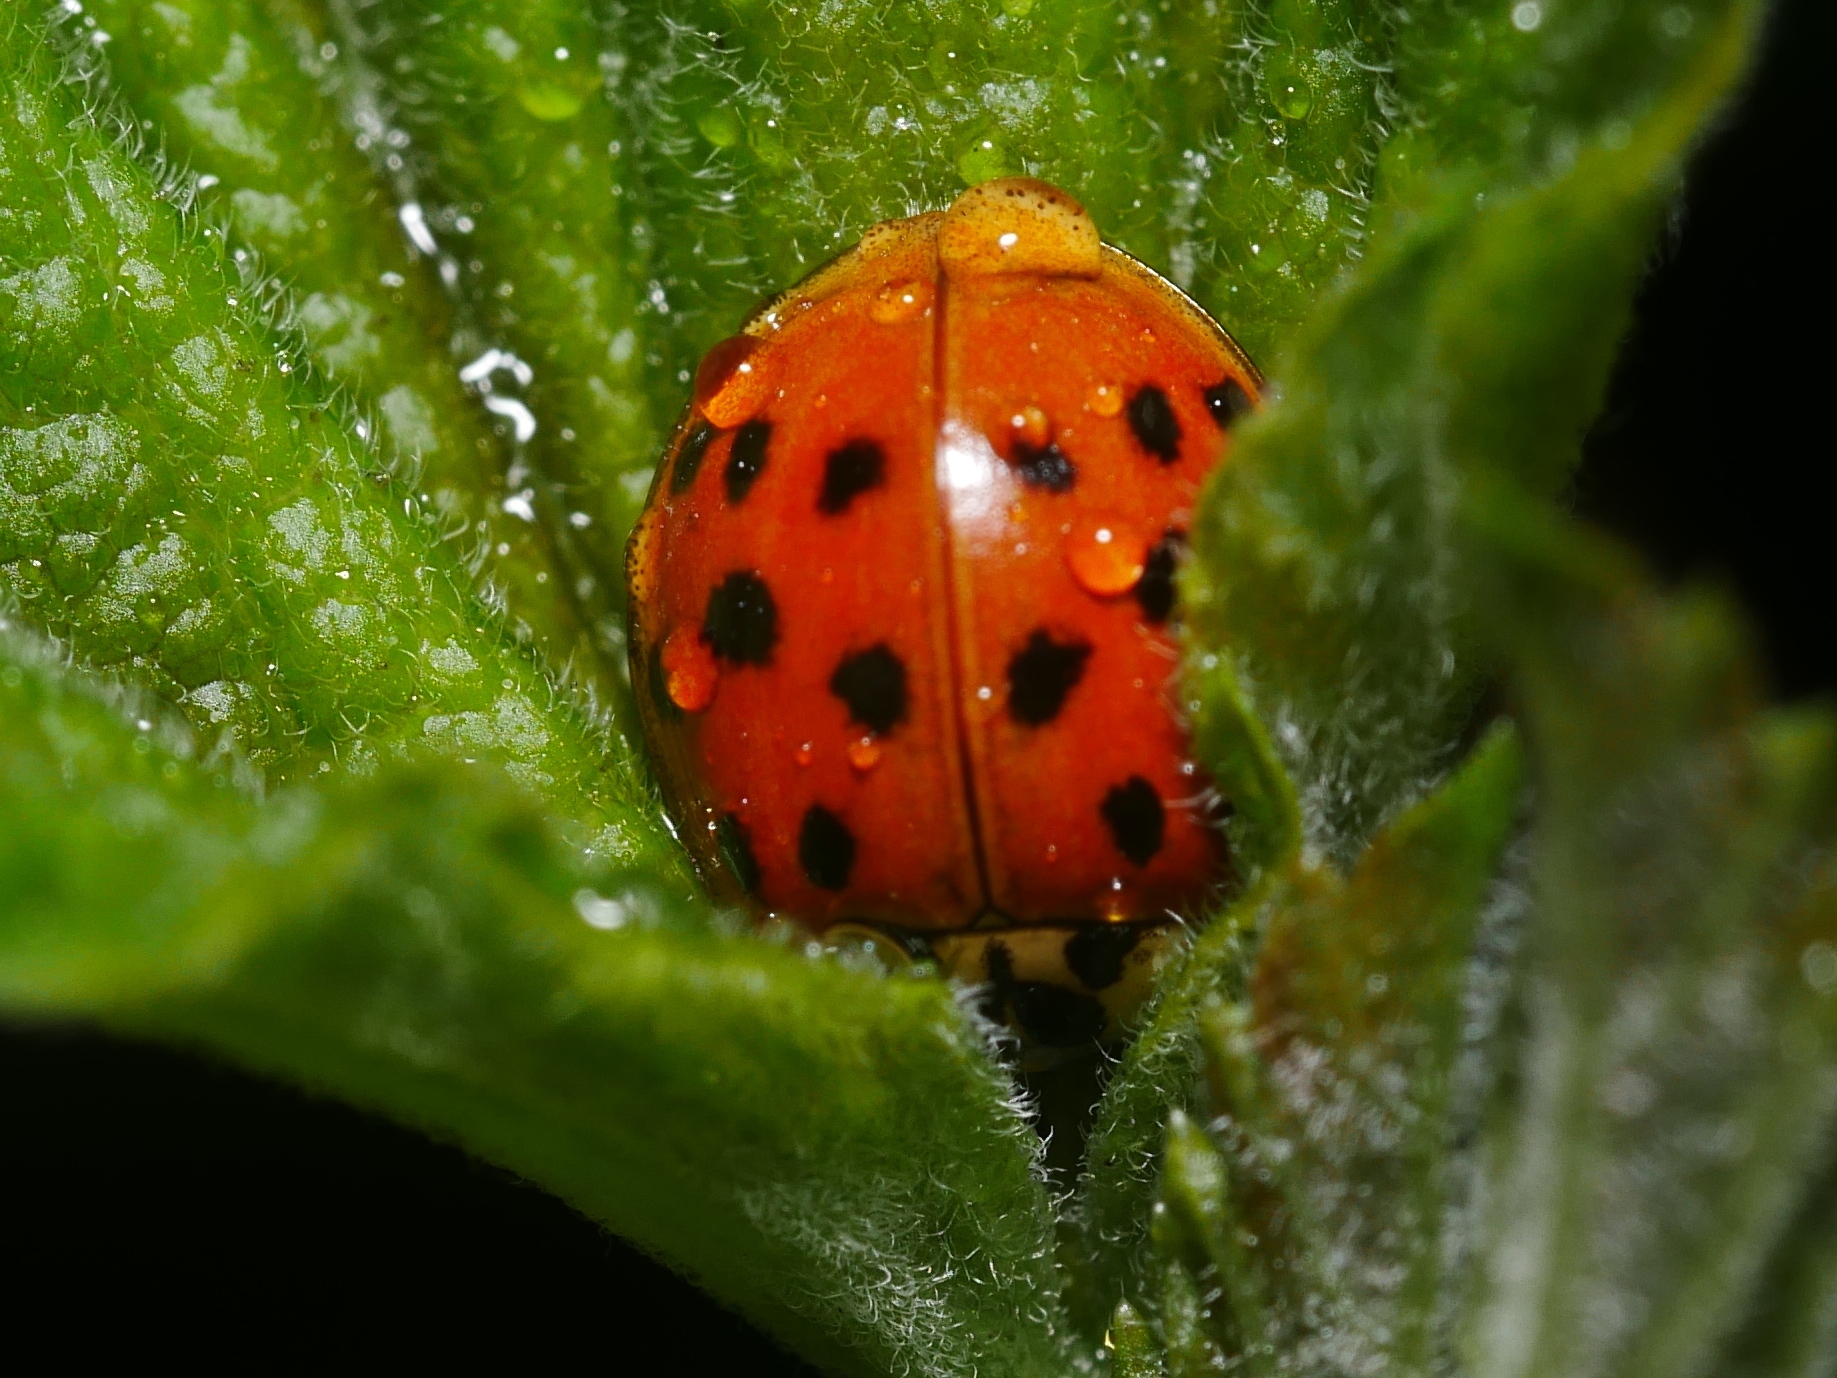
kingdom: Animalia
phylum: Arthropoda
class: Insecta
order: Coleoptera
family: Coccinellidae
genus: Harmonia
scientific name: Harmonia axyridis
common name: Harlequin ladybird
